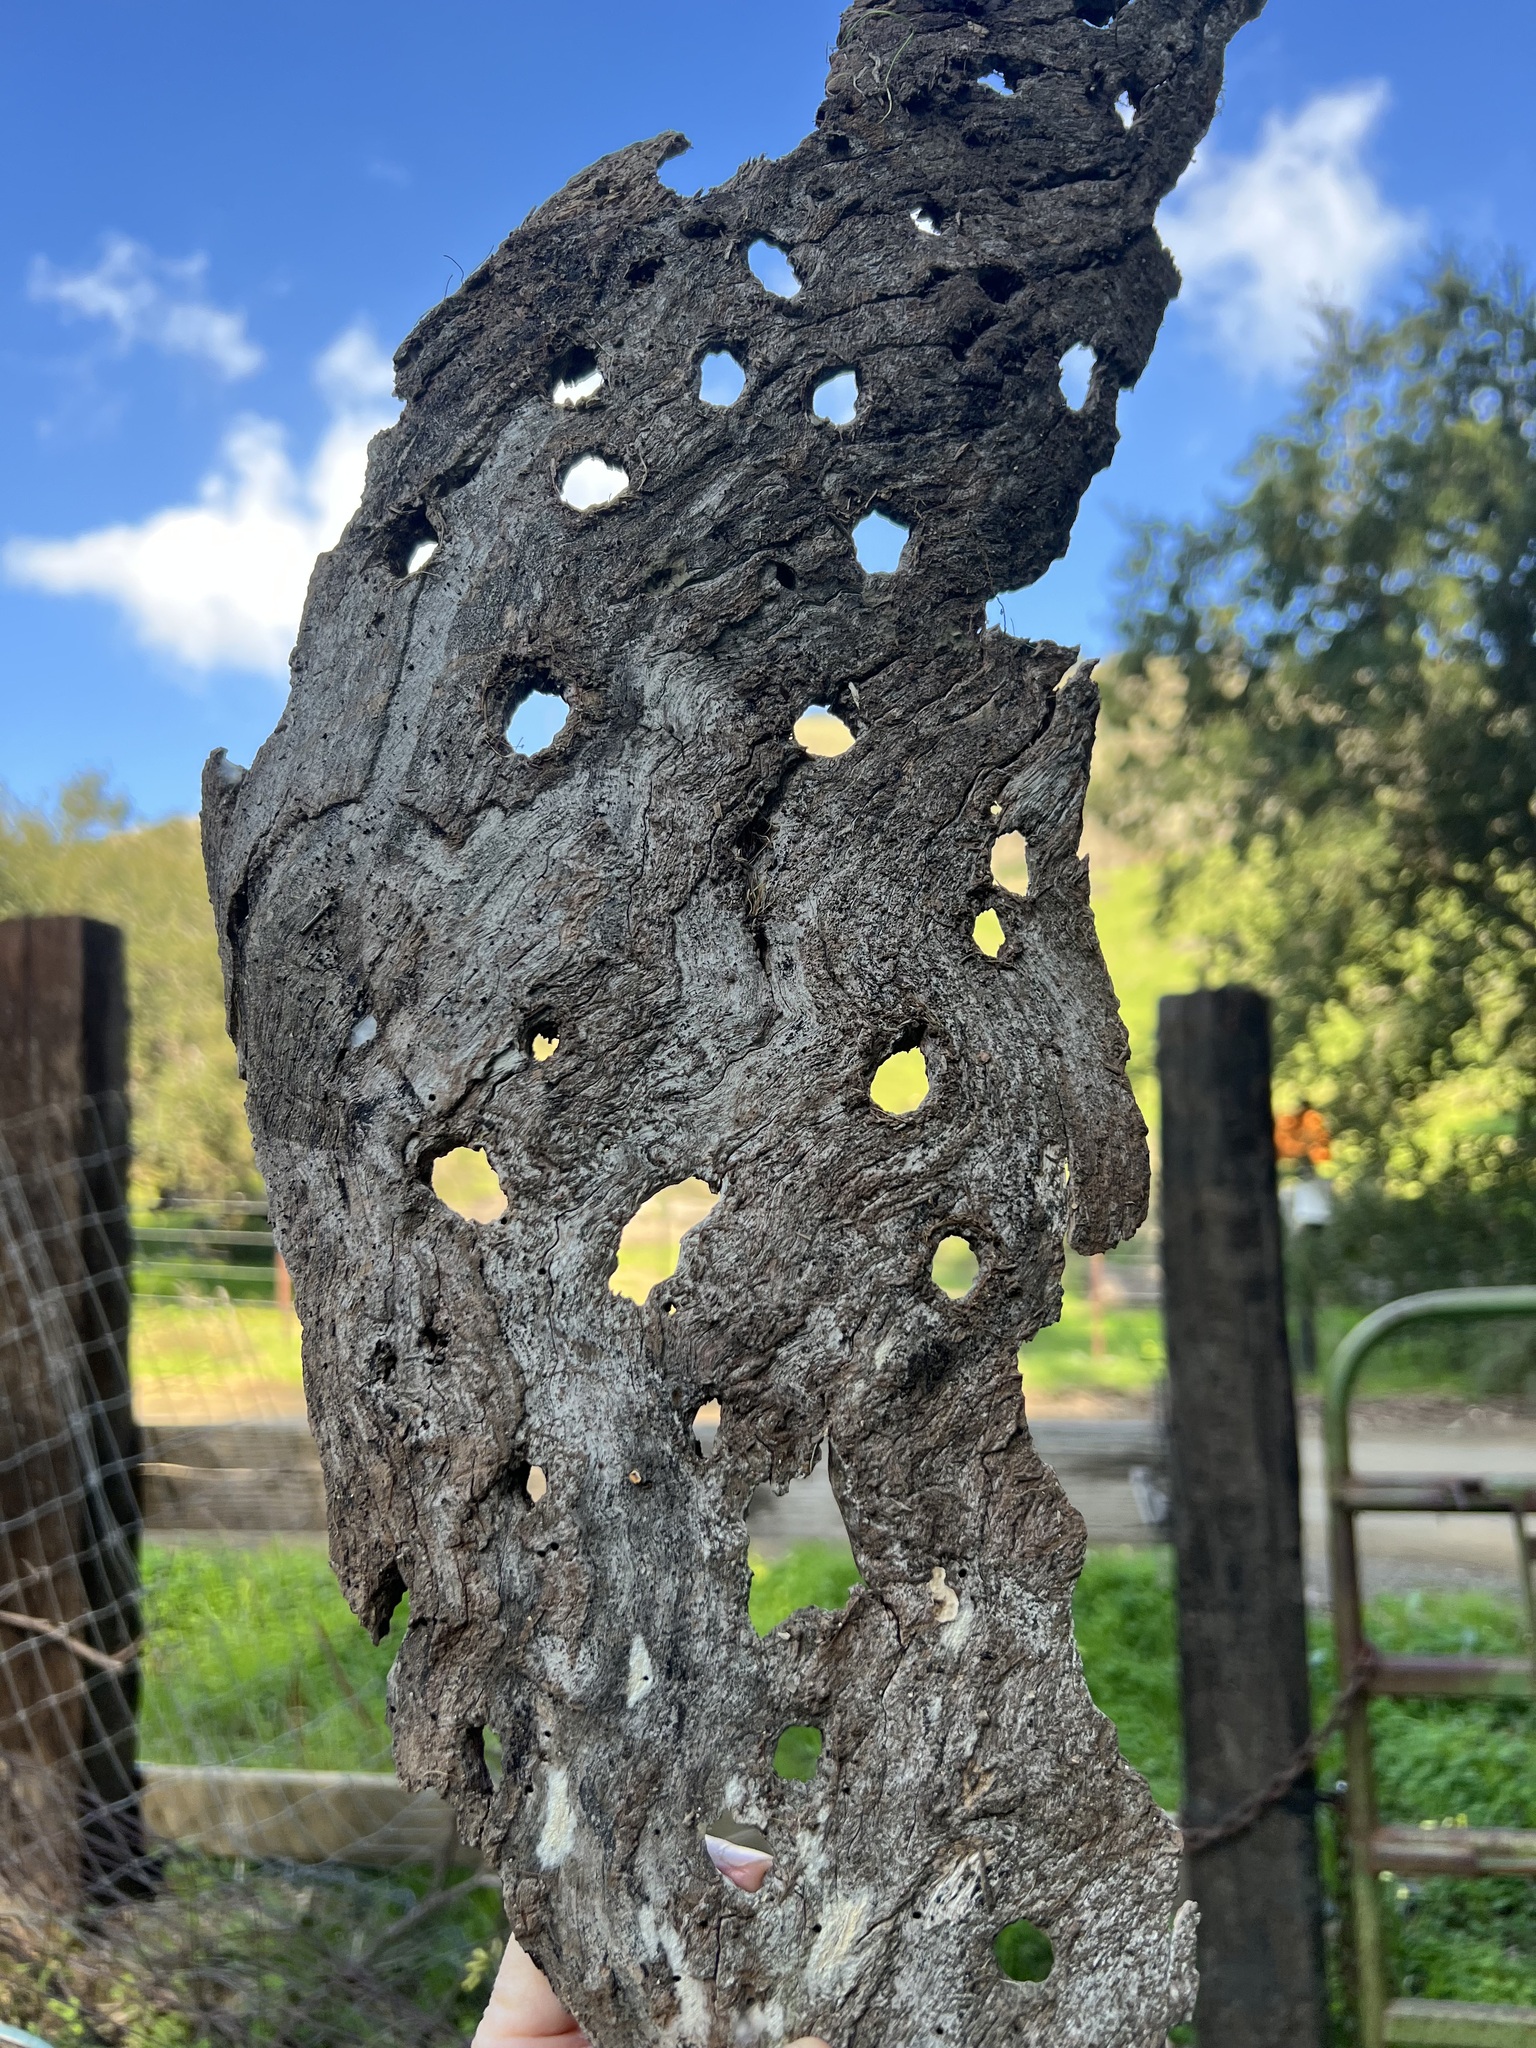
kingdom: Animalia
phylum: Chordata
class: Aves
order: Piciformes
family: Picidae
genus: Melanerpes
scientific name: Melanerpes formicivorus
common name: Acorn woodpecker
